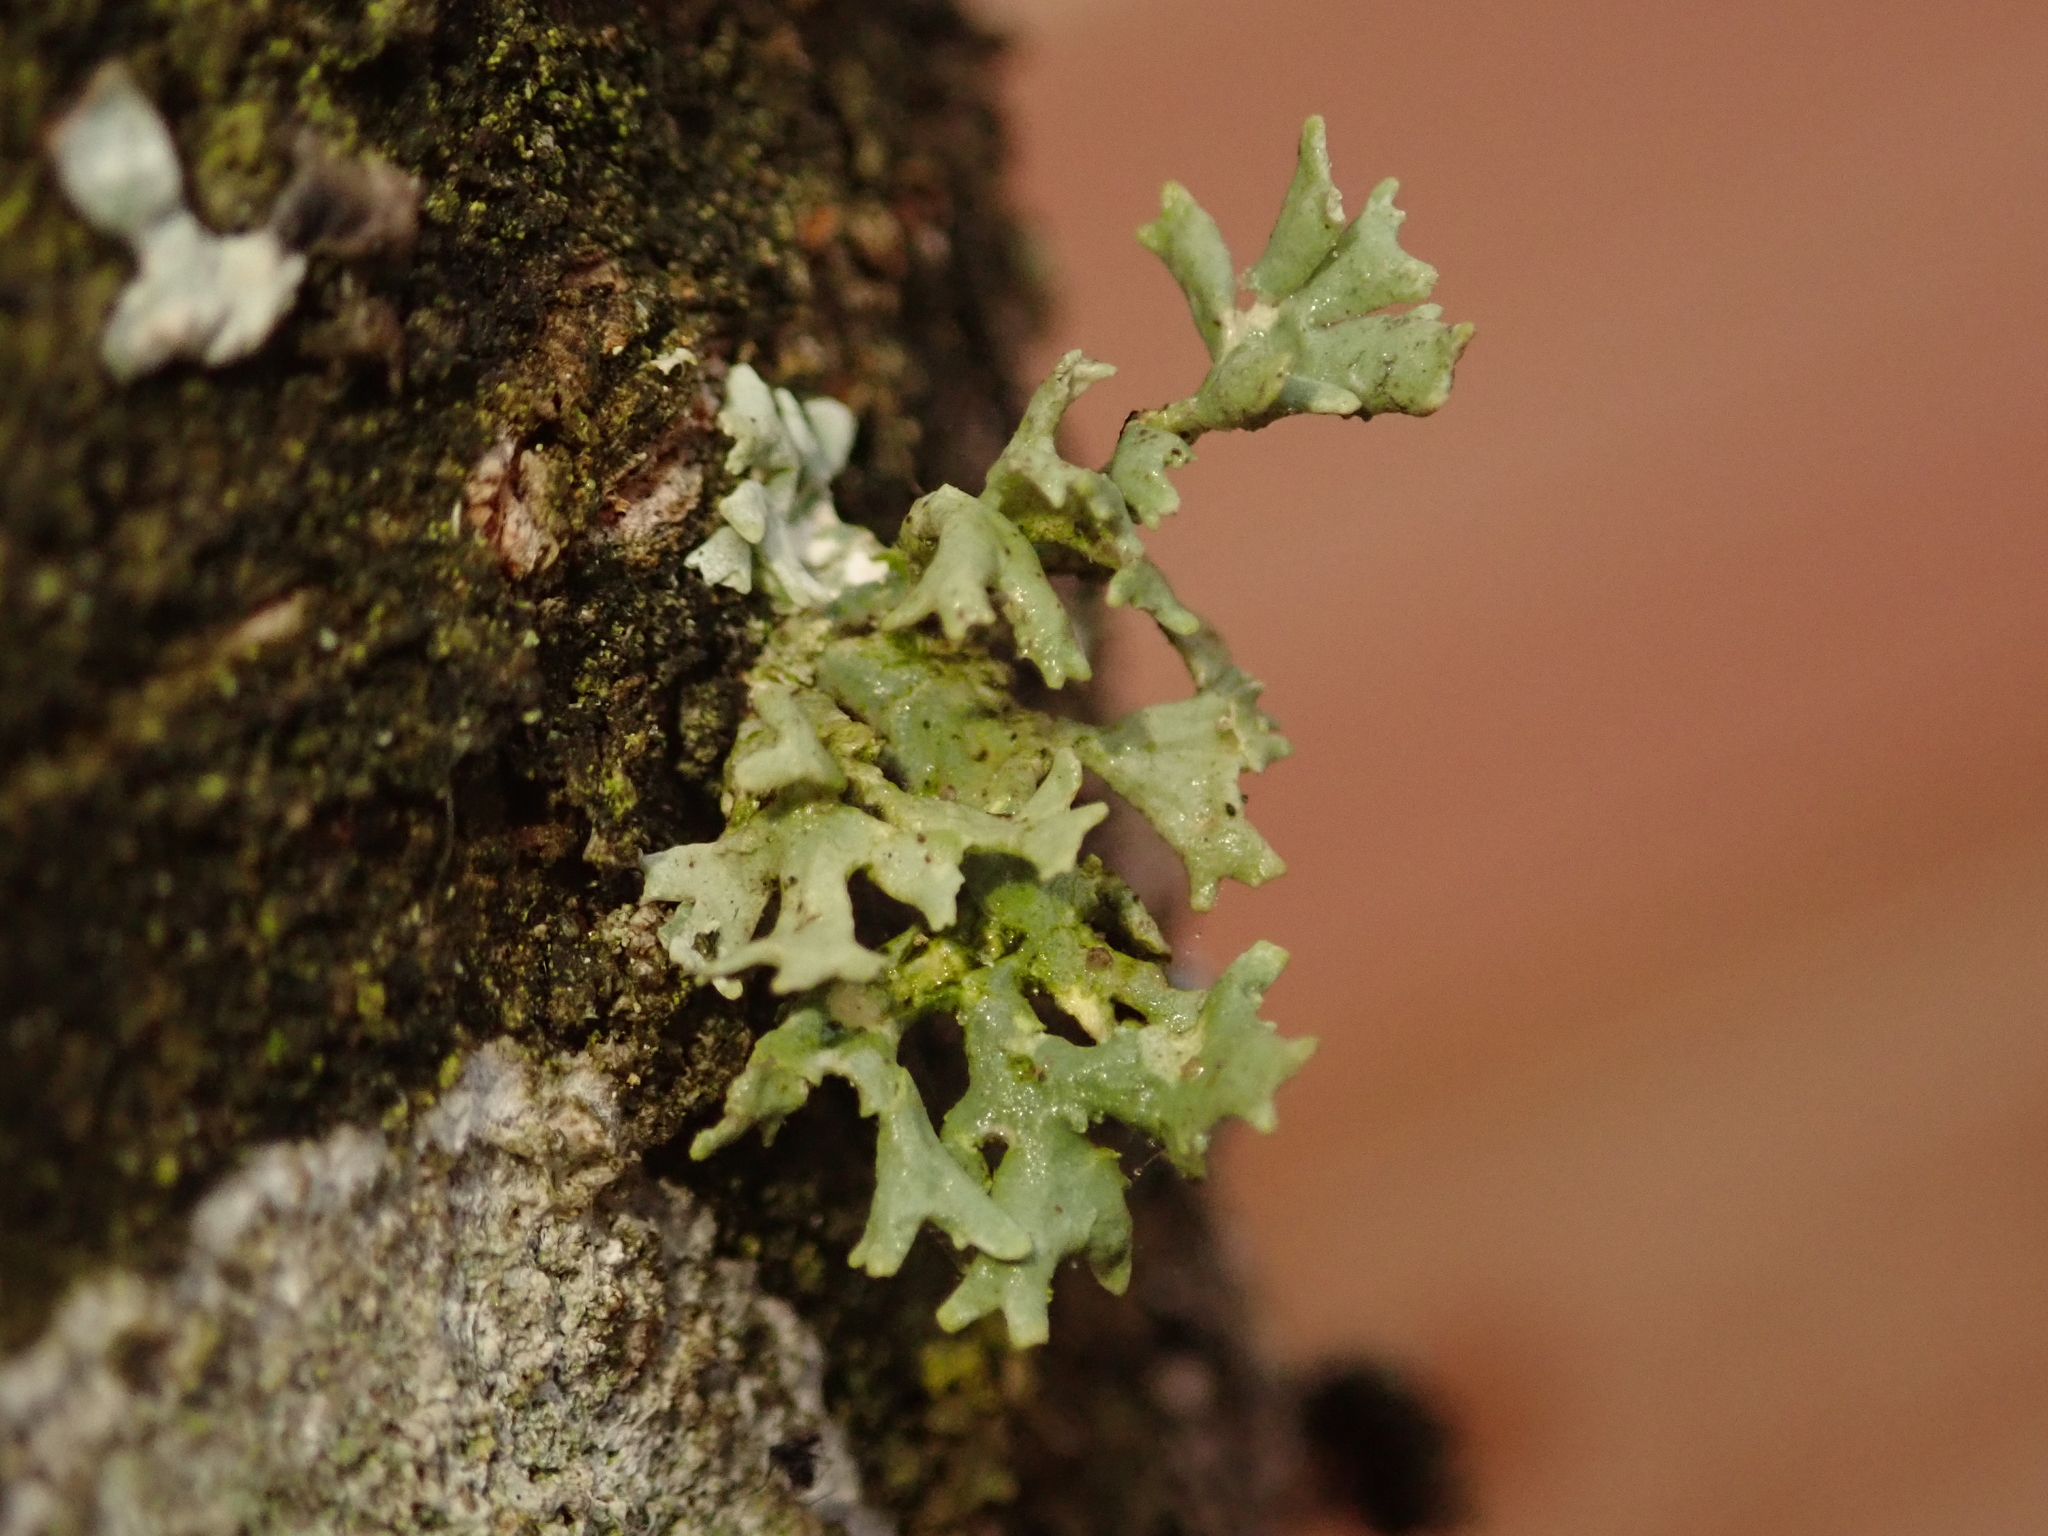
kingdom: Fungi
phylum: Ascomycota
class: Lecanoromycetes
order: Lecanorales
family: Parmeliaceae
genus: Evernia
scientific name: Evernia prunastri
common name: Oak moss
